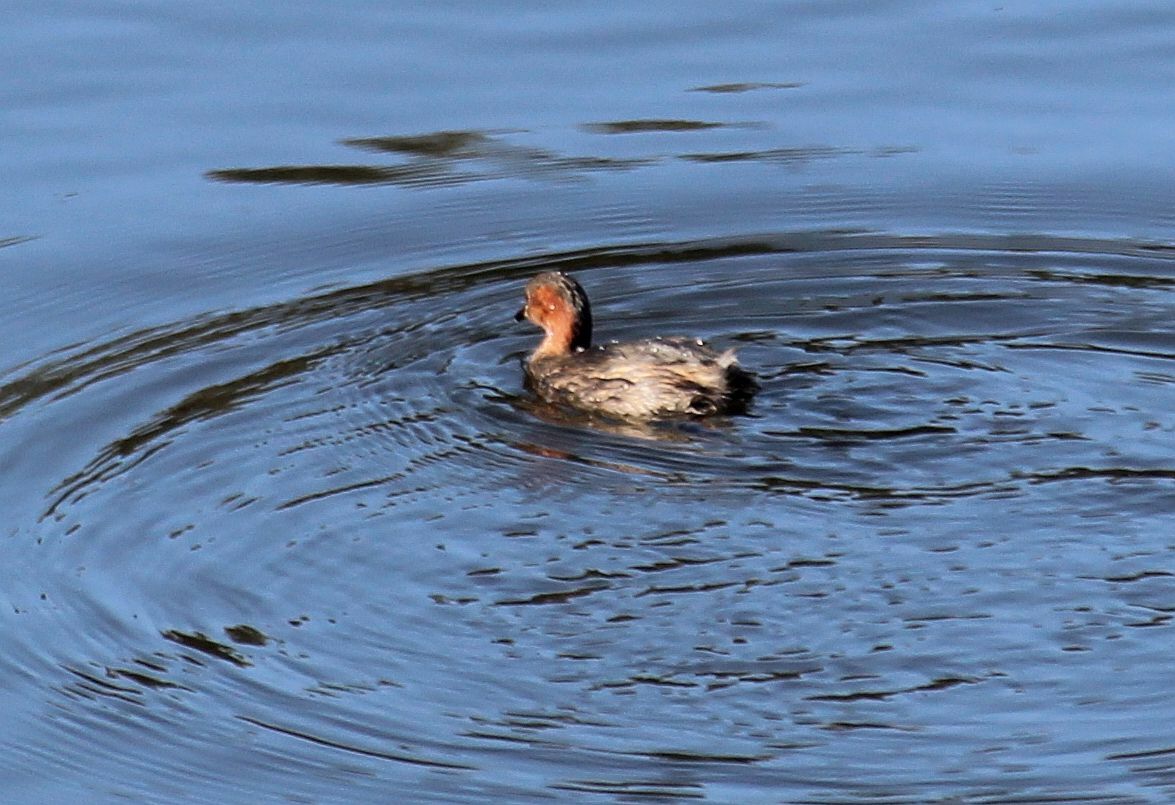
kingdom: Animalia
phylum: Chordata
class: Aves
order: Podicipediformes
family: Podicipedidae
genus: Tachybaptus
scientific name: Tachybaptus ruficollis
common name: Little grebe
